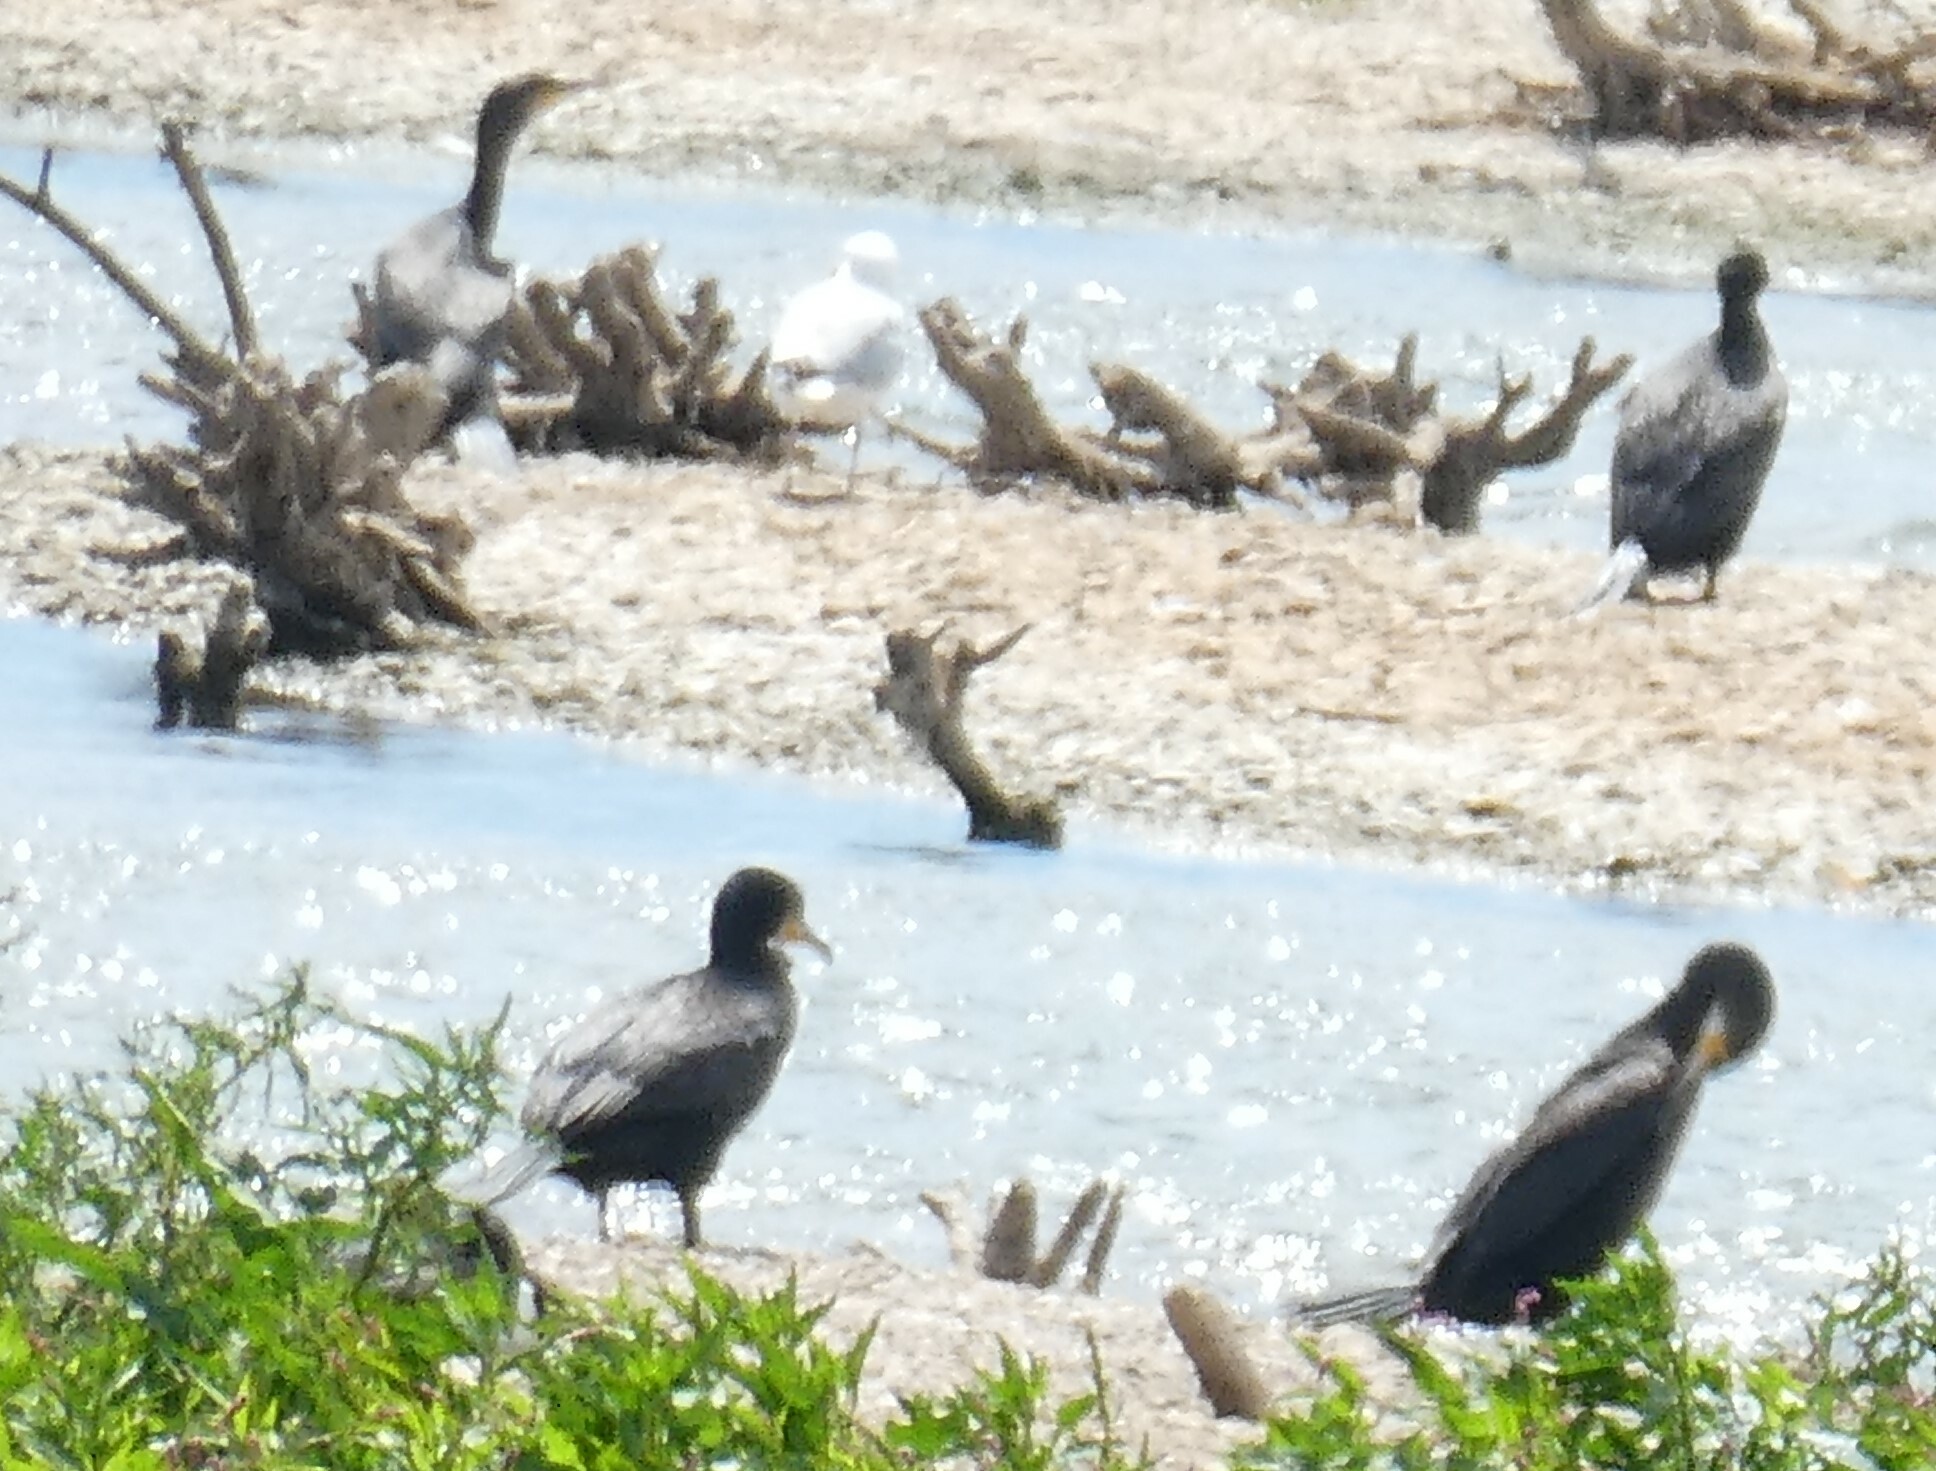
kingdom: Animalia
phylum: Chordata
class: Aves
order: Suliformes
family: Phalacrocoracidae
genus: Phalacrocorax
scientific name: Phalacrocorax carbo
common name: Great cormorant
